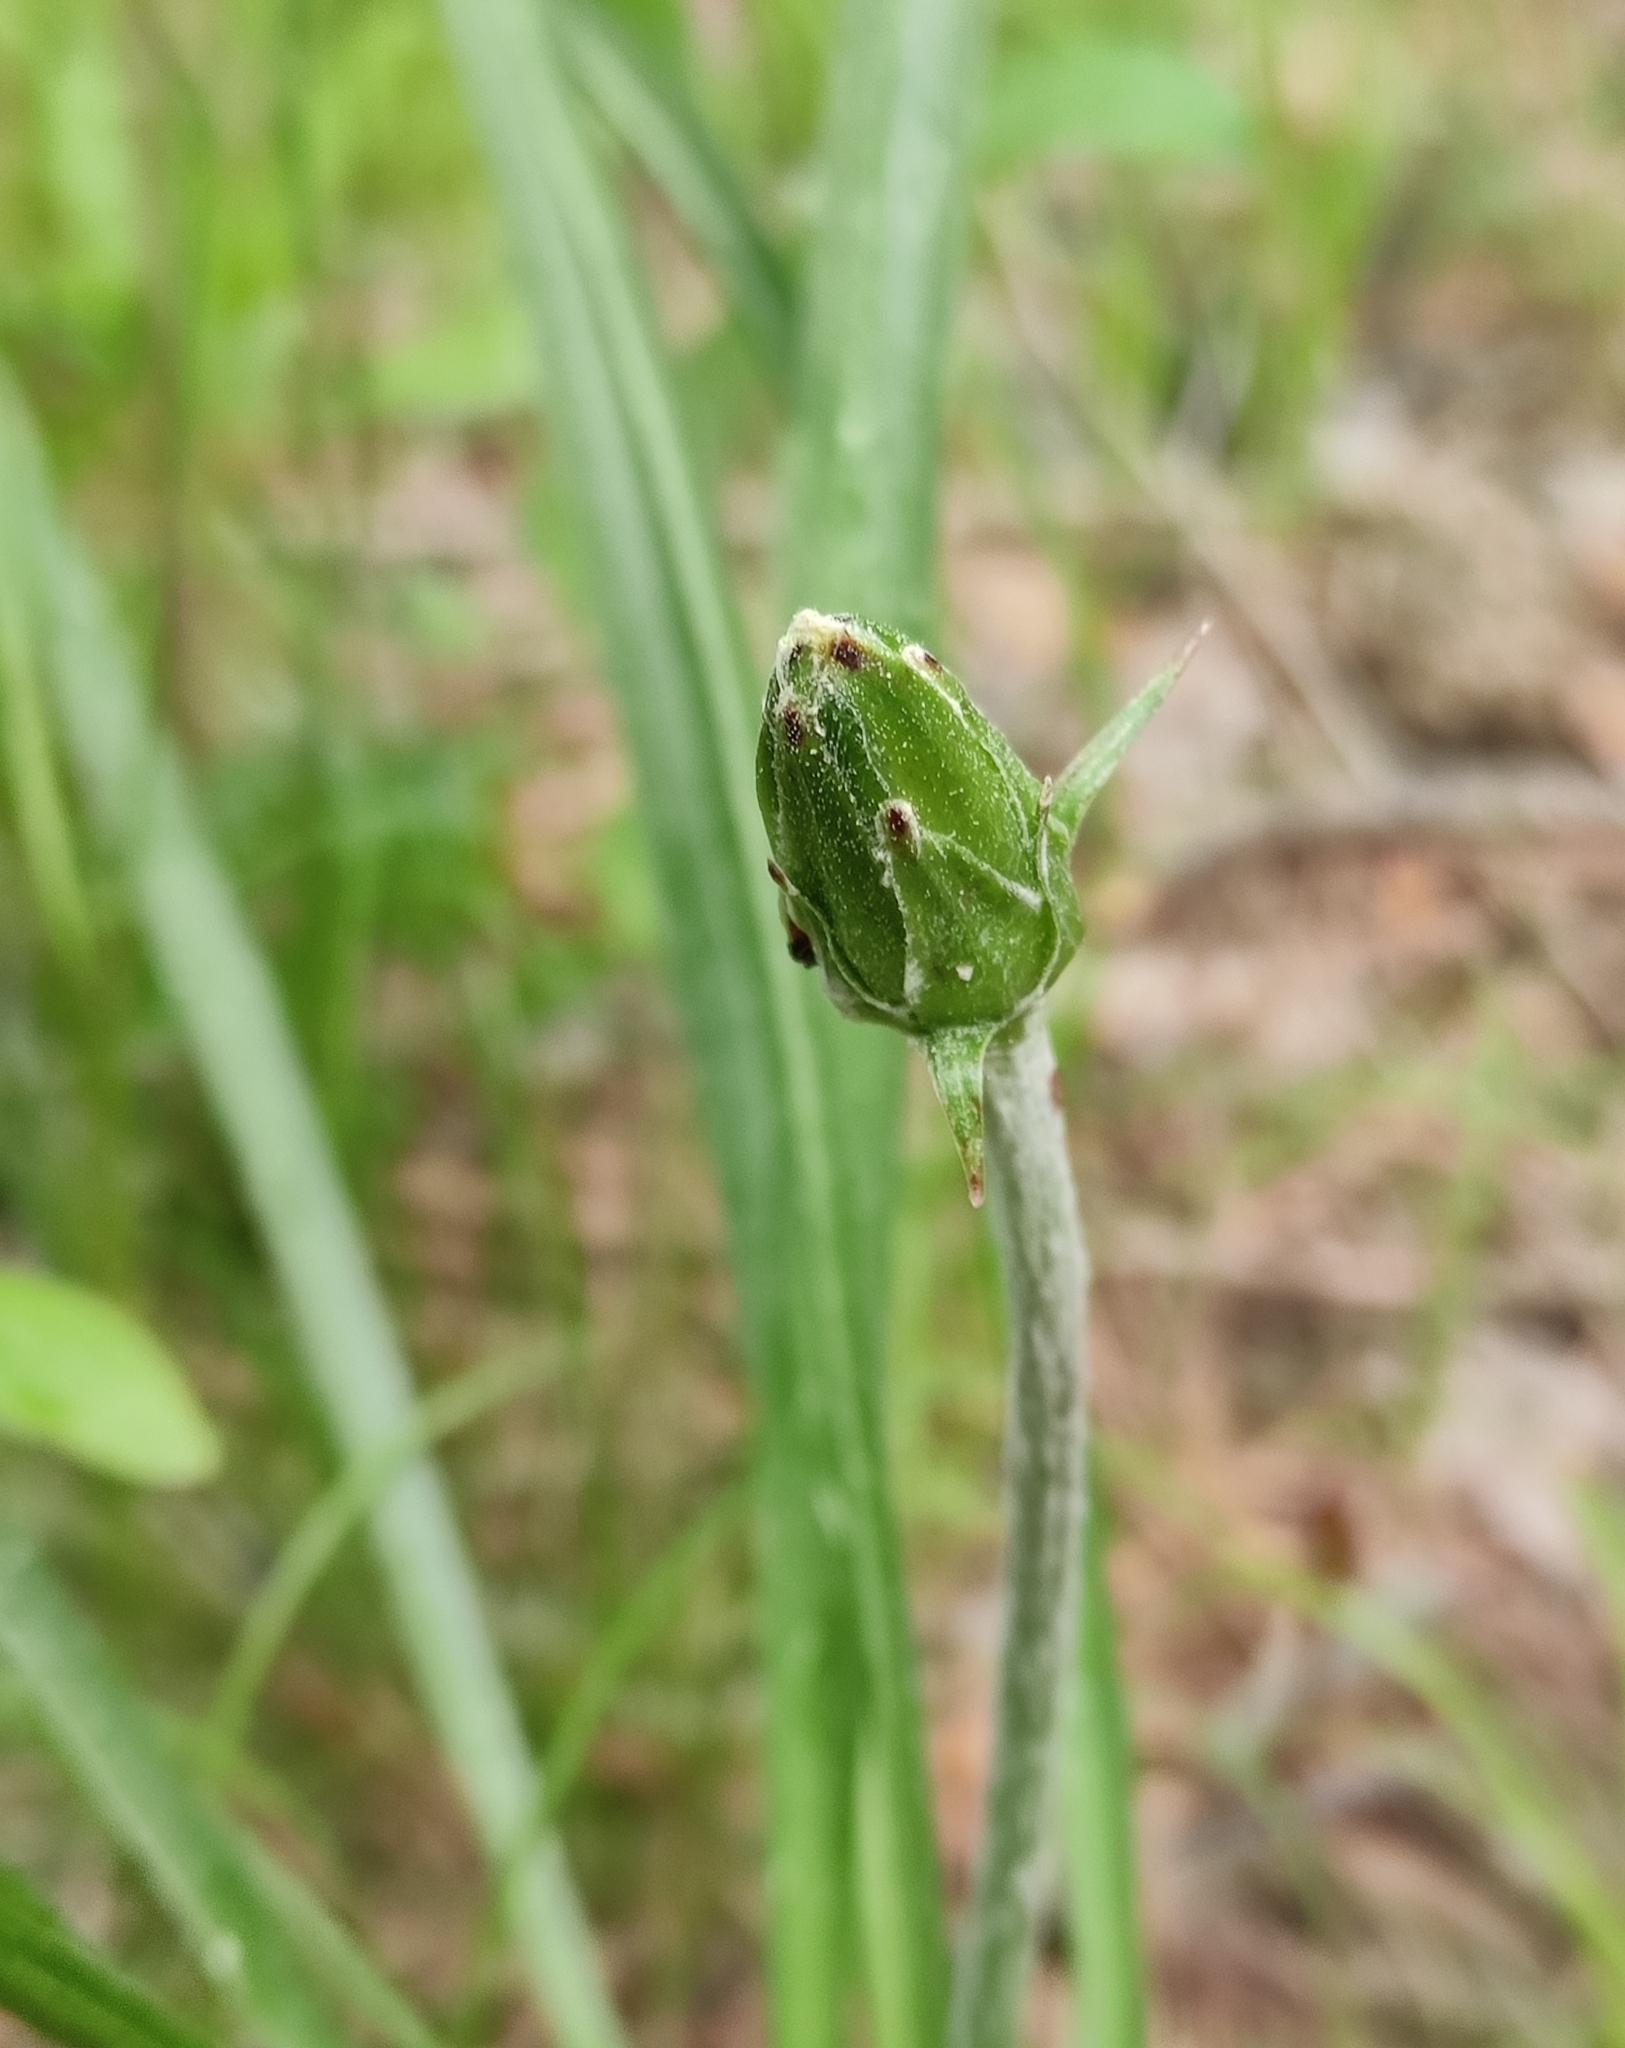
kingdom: Plantae
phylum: Tracheophyta
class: Magnoliopsida
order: Asterales
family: Asteraceae
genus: Scorzonera
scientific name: Scorzonera radiata
